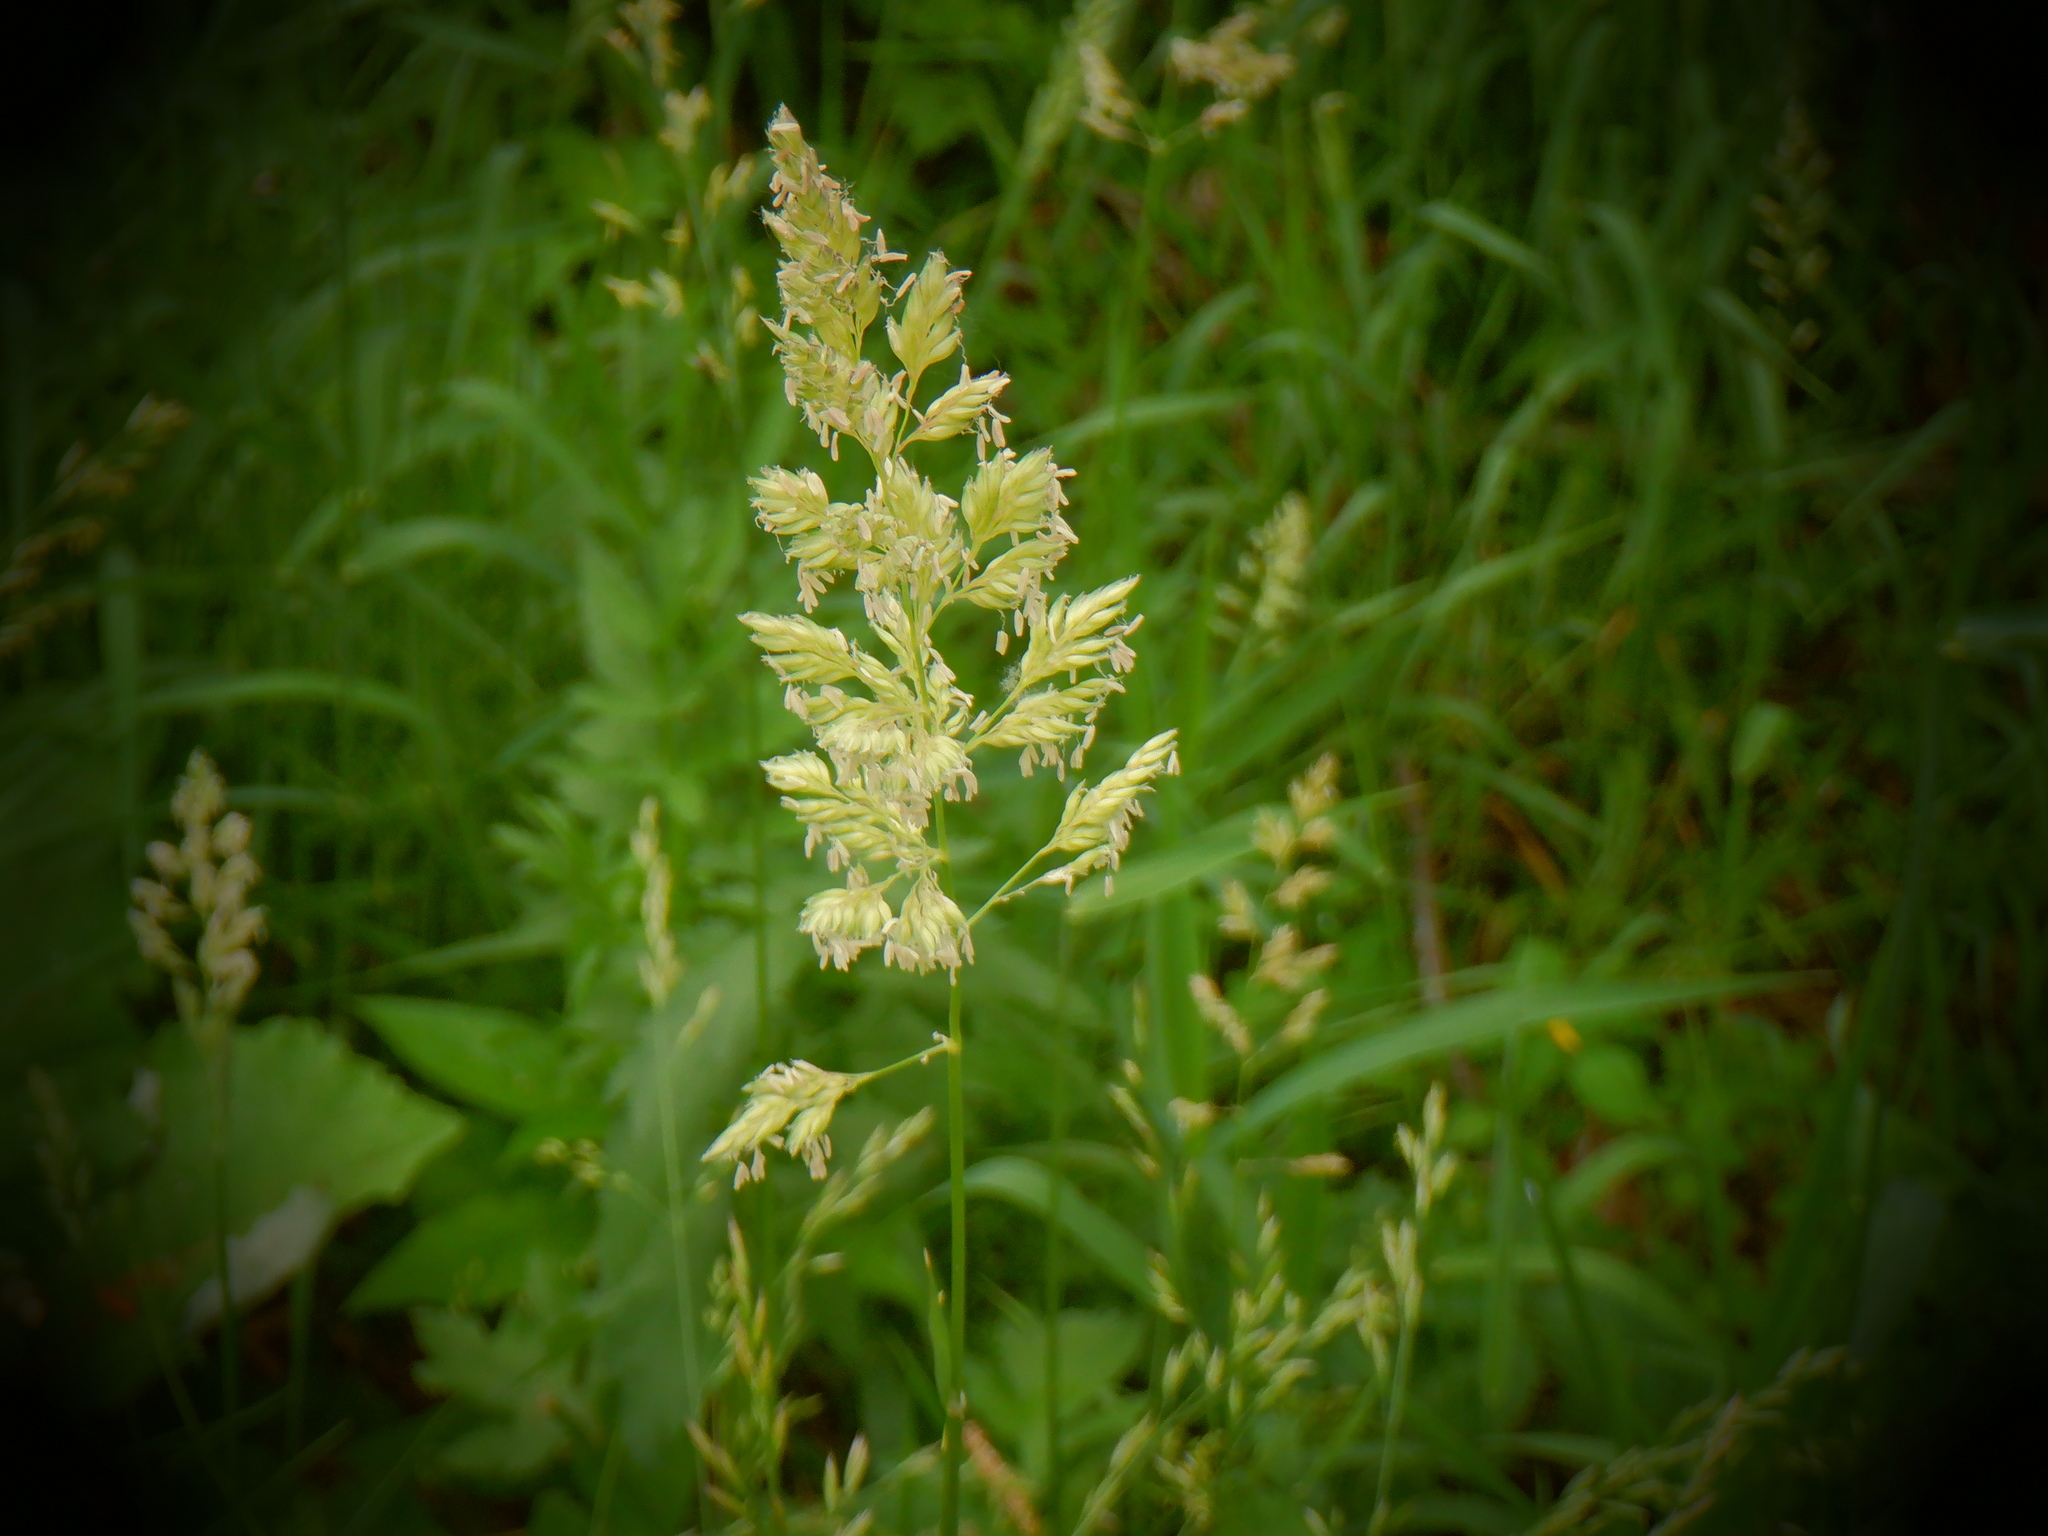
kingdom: Plantae
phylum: Tracheophyta
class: Liliopsida
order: Poales
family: Poaceae
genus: Phalaris
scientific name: Phalaris arundinacea
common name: Reed canary-grass
